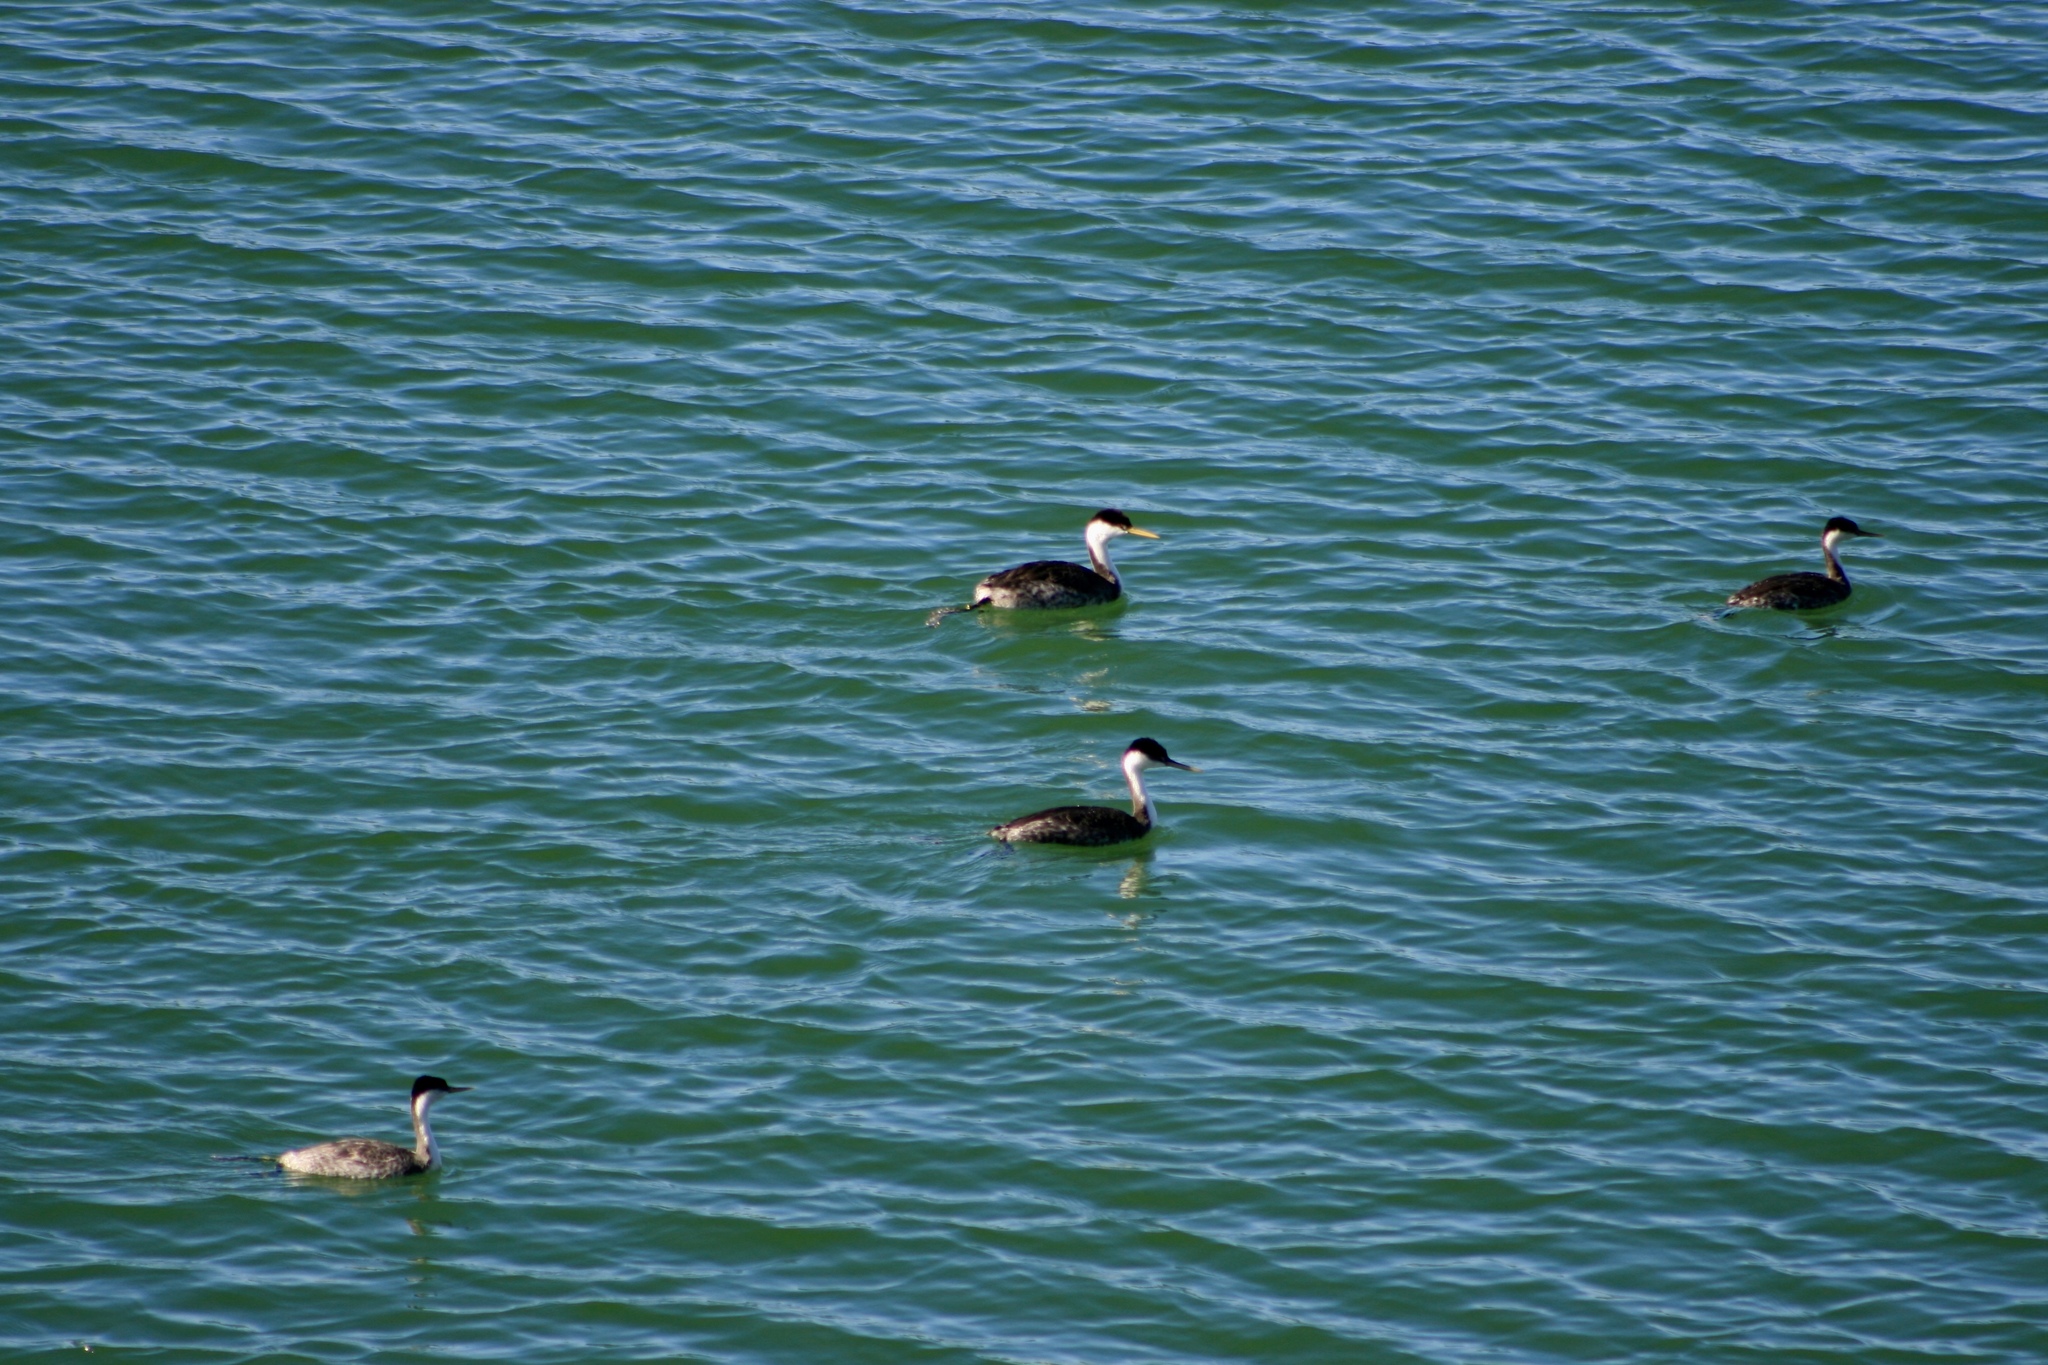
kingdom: Animalia
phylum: Chordata
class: Aves
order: Podicipediformes
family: Podicipedidae
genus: Aechmophorus
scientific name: Aechmophorus occidentalis
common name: Western grebe
